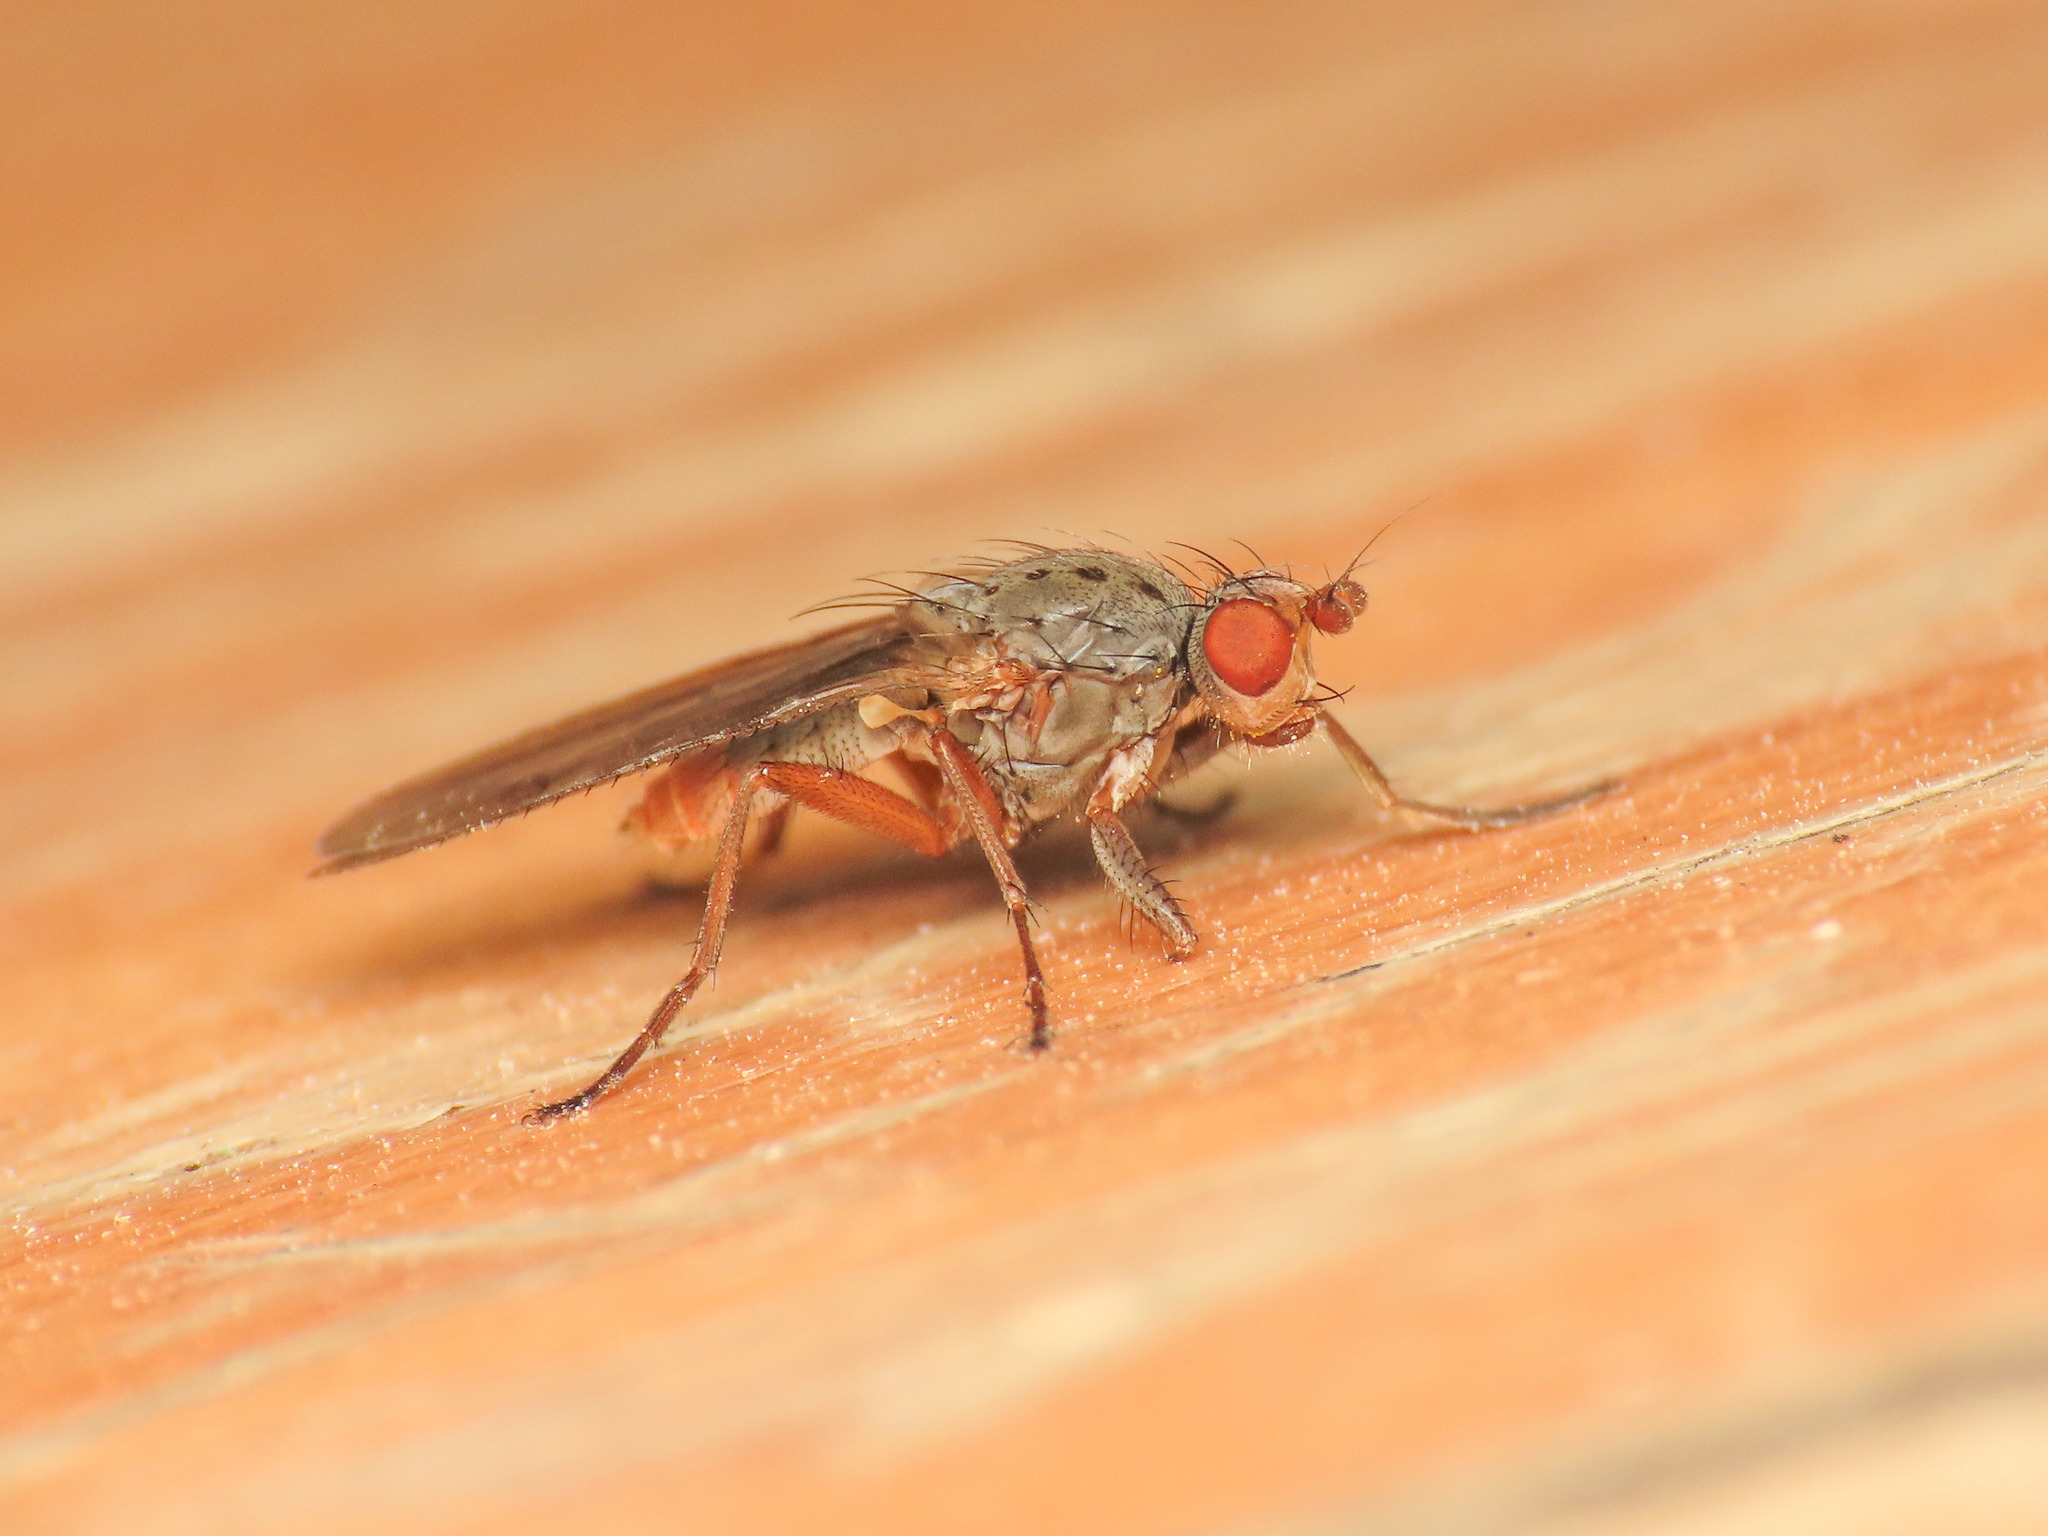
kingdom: Animalia
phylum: Arthropoda
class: Insecta
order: Diptera
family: Heleomyzidae
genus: Amoebaleria
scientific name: Amoebaleria caesia
